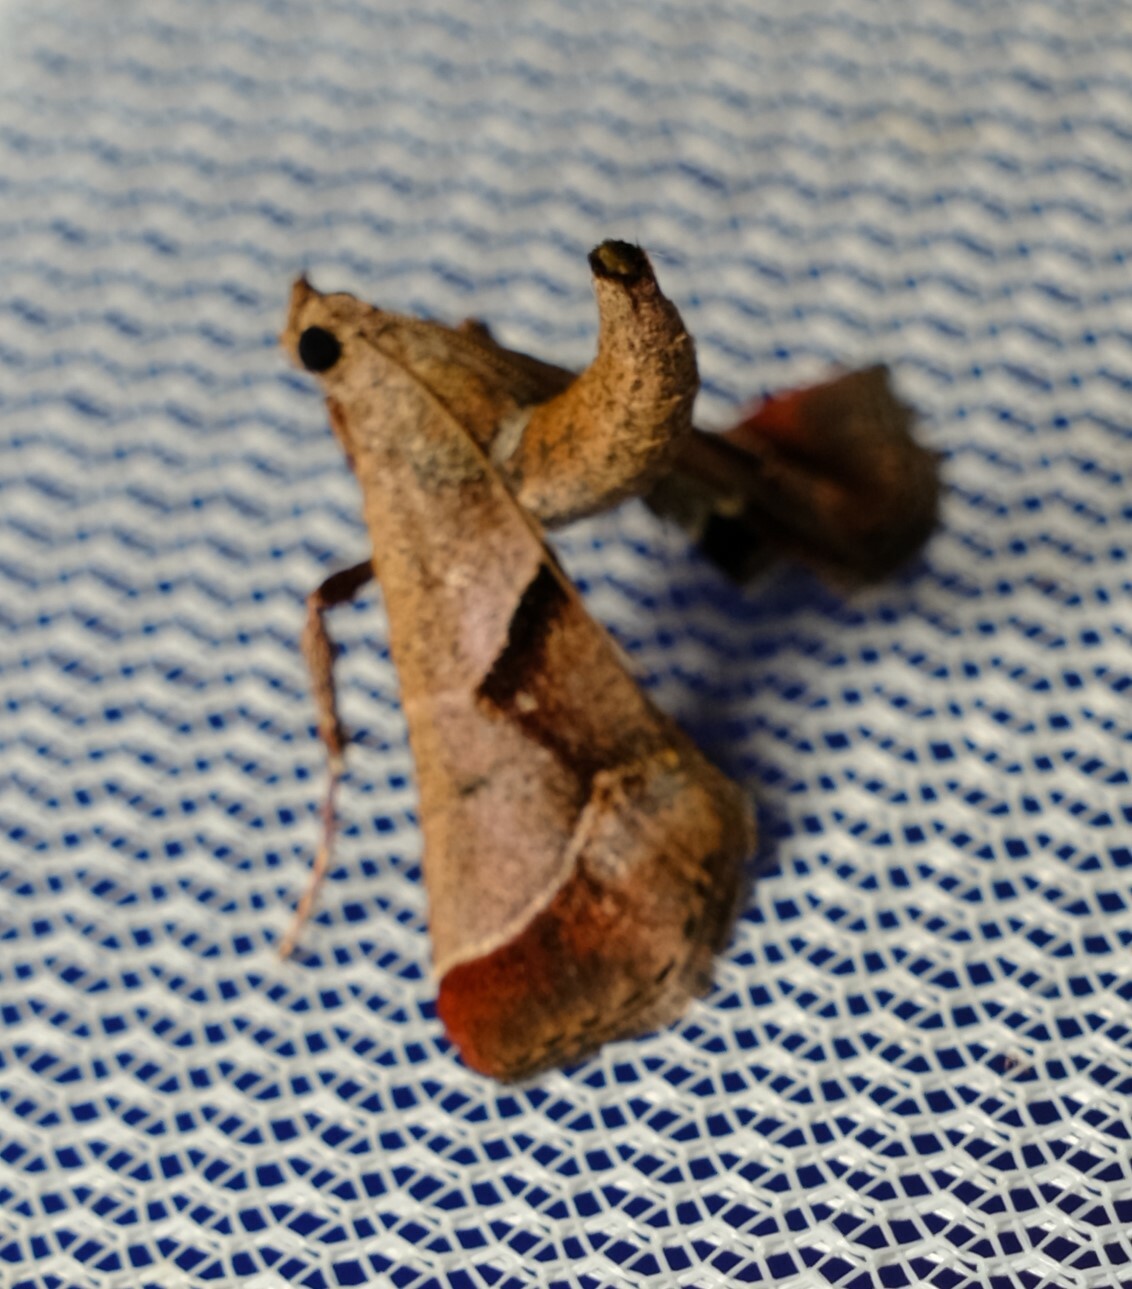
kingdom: Animalia
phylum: Arthropoda
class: Insecta
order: Lepidoptera
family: Pyralidae
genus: Gauna
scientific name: Gauna aegusalis
